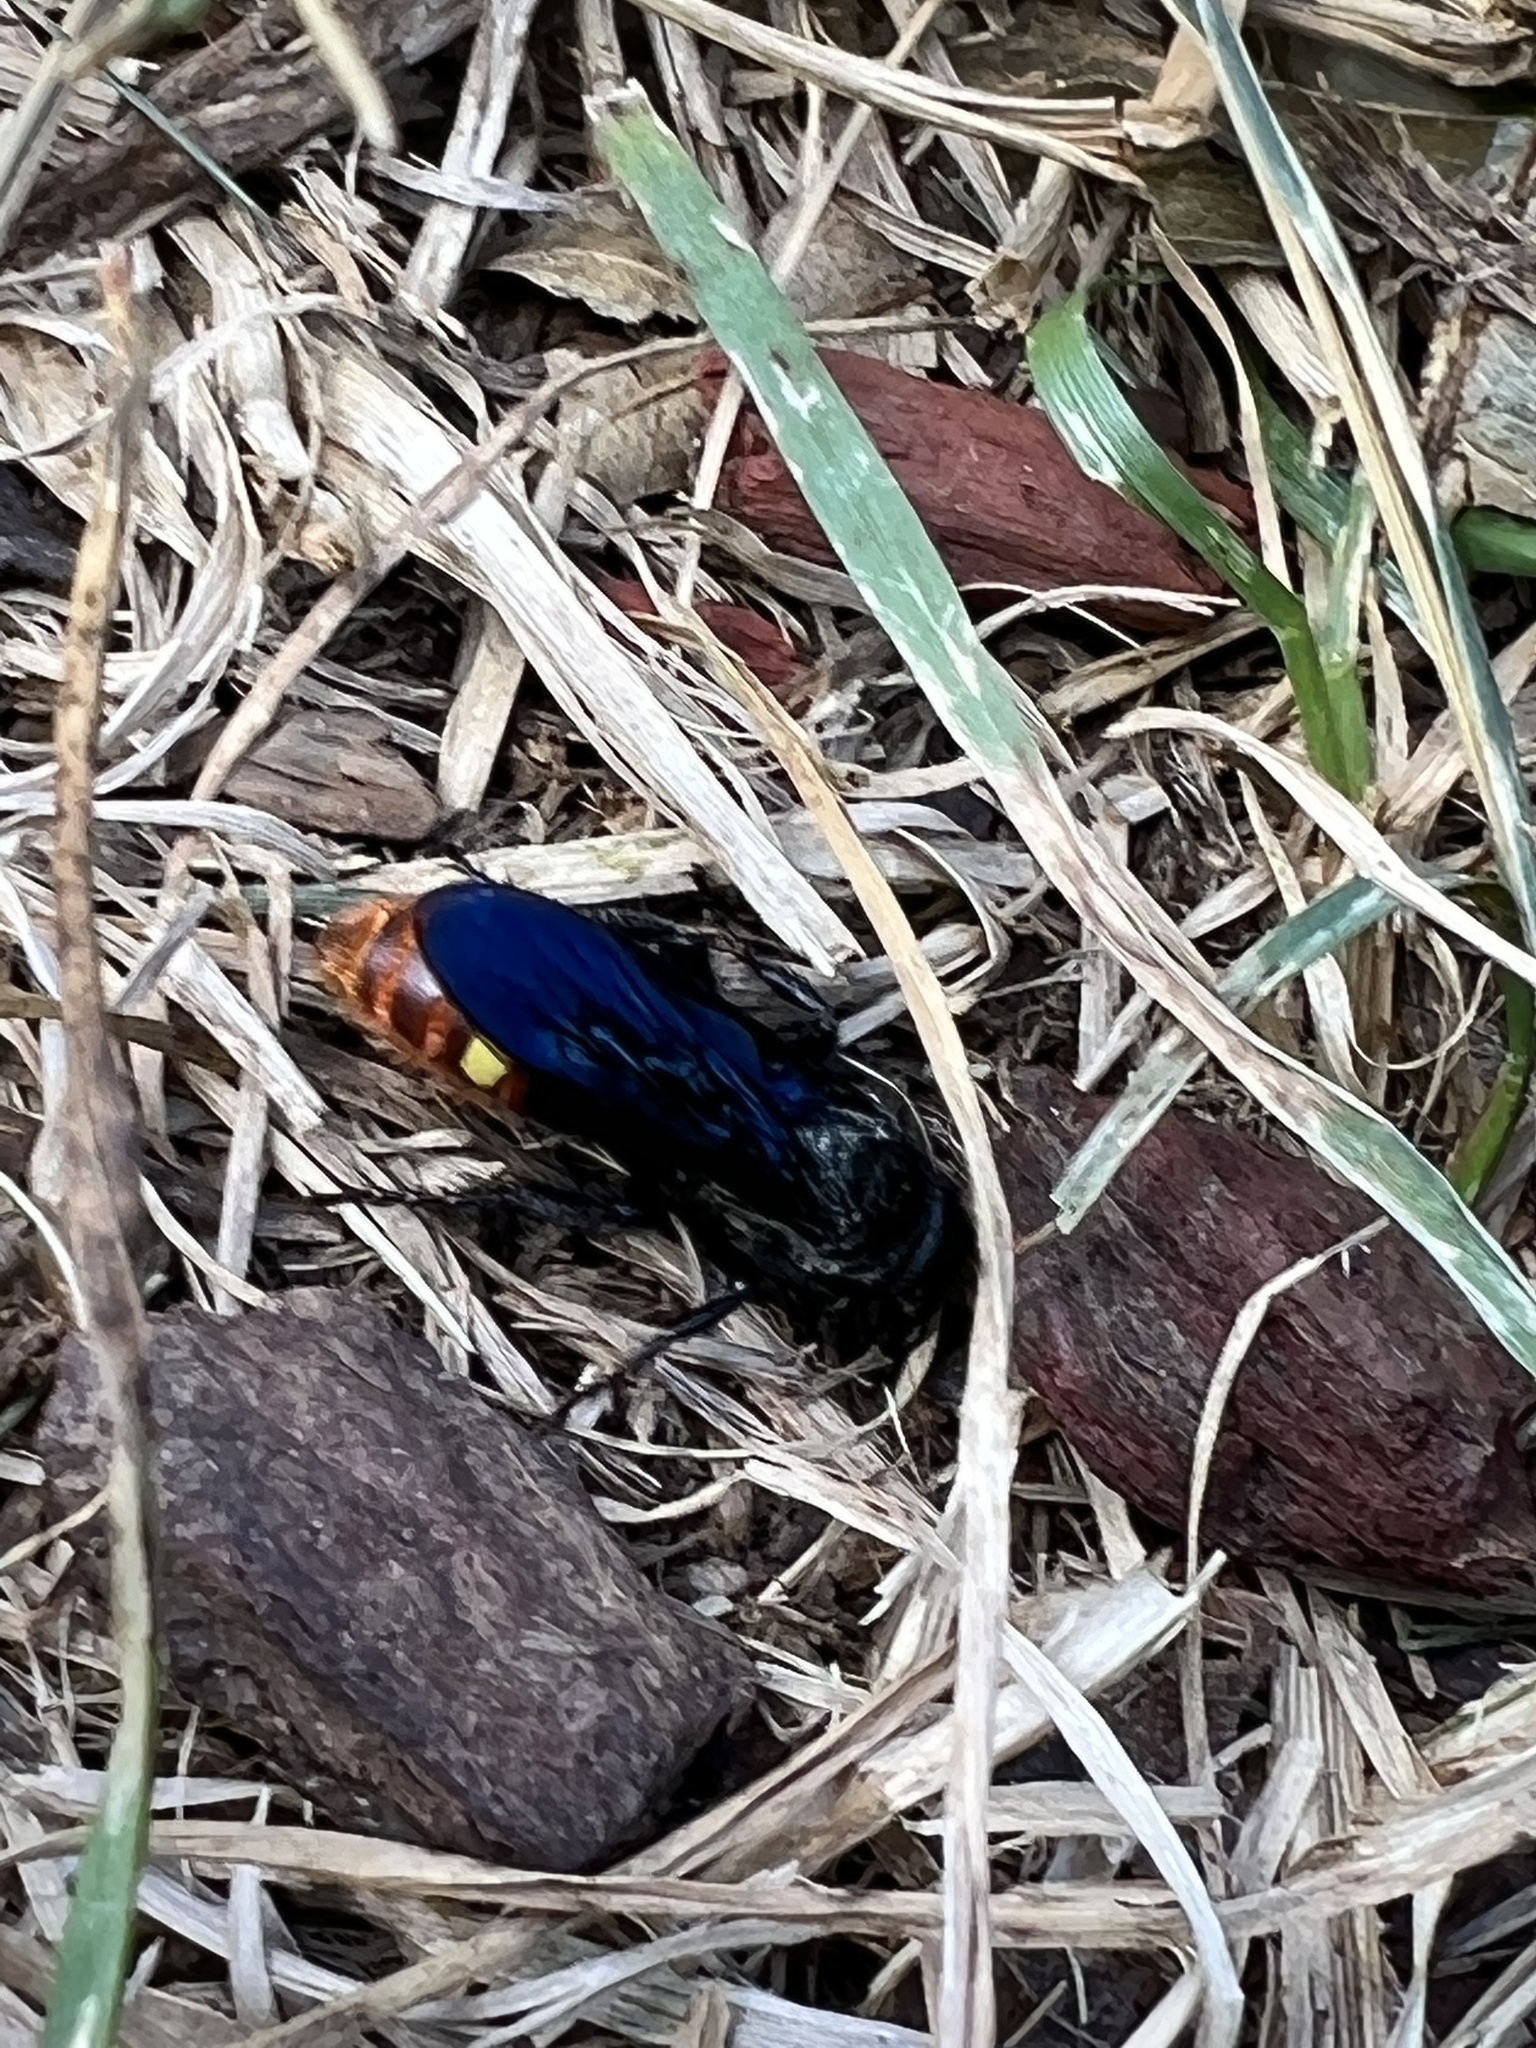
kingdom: Animalia
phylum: Arthropoda
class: Insecta
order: Hymenoptera
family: Scoliidae
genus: Scolia
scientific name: Scolia dubia
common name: Blue-winged scoliid wasp
